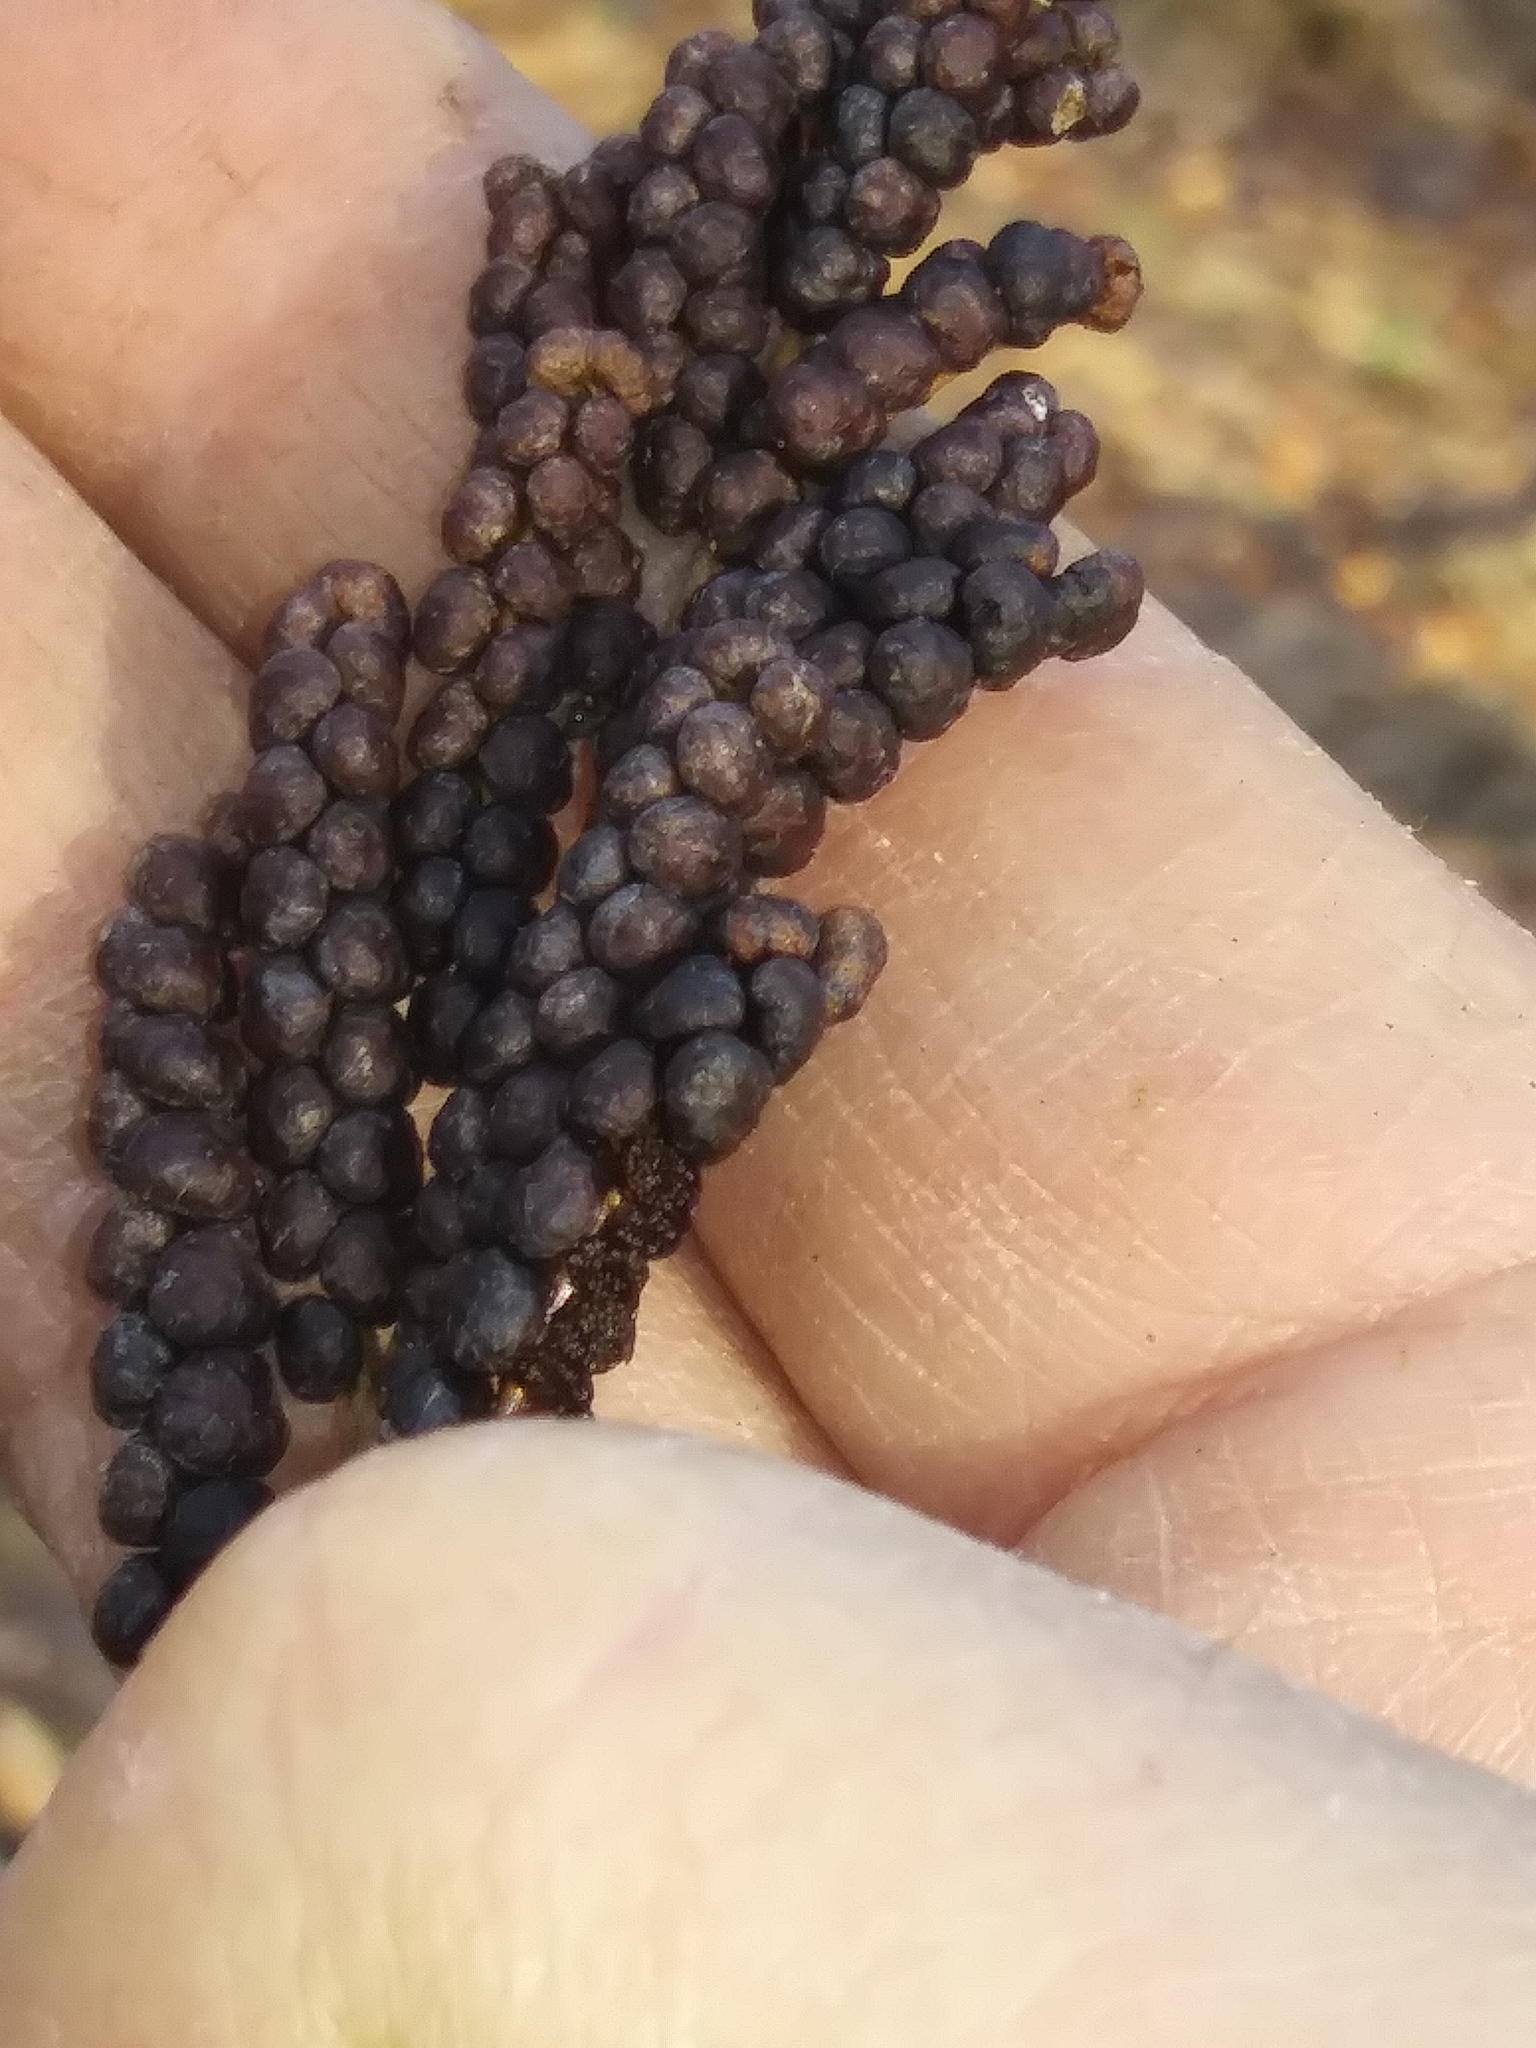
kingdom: Plantae
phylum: Tracheophyta
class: Polypodiopsida
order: Polypodiales
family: Onocleaceae
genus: Onoclea
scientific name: Onoclea sensibilis
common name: Sensitive fern
